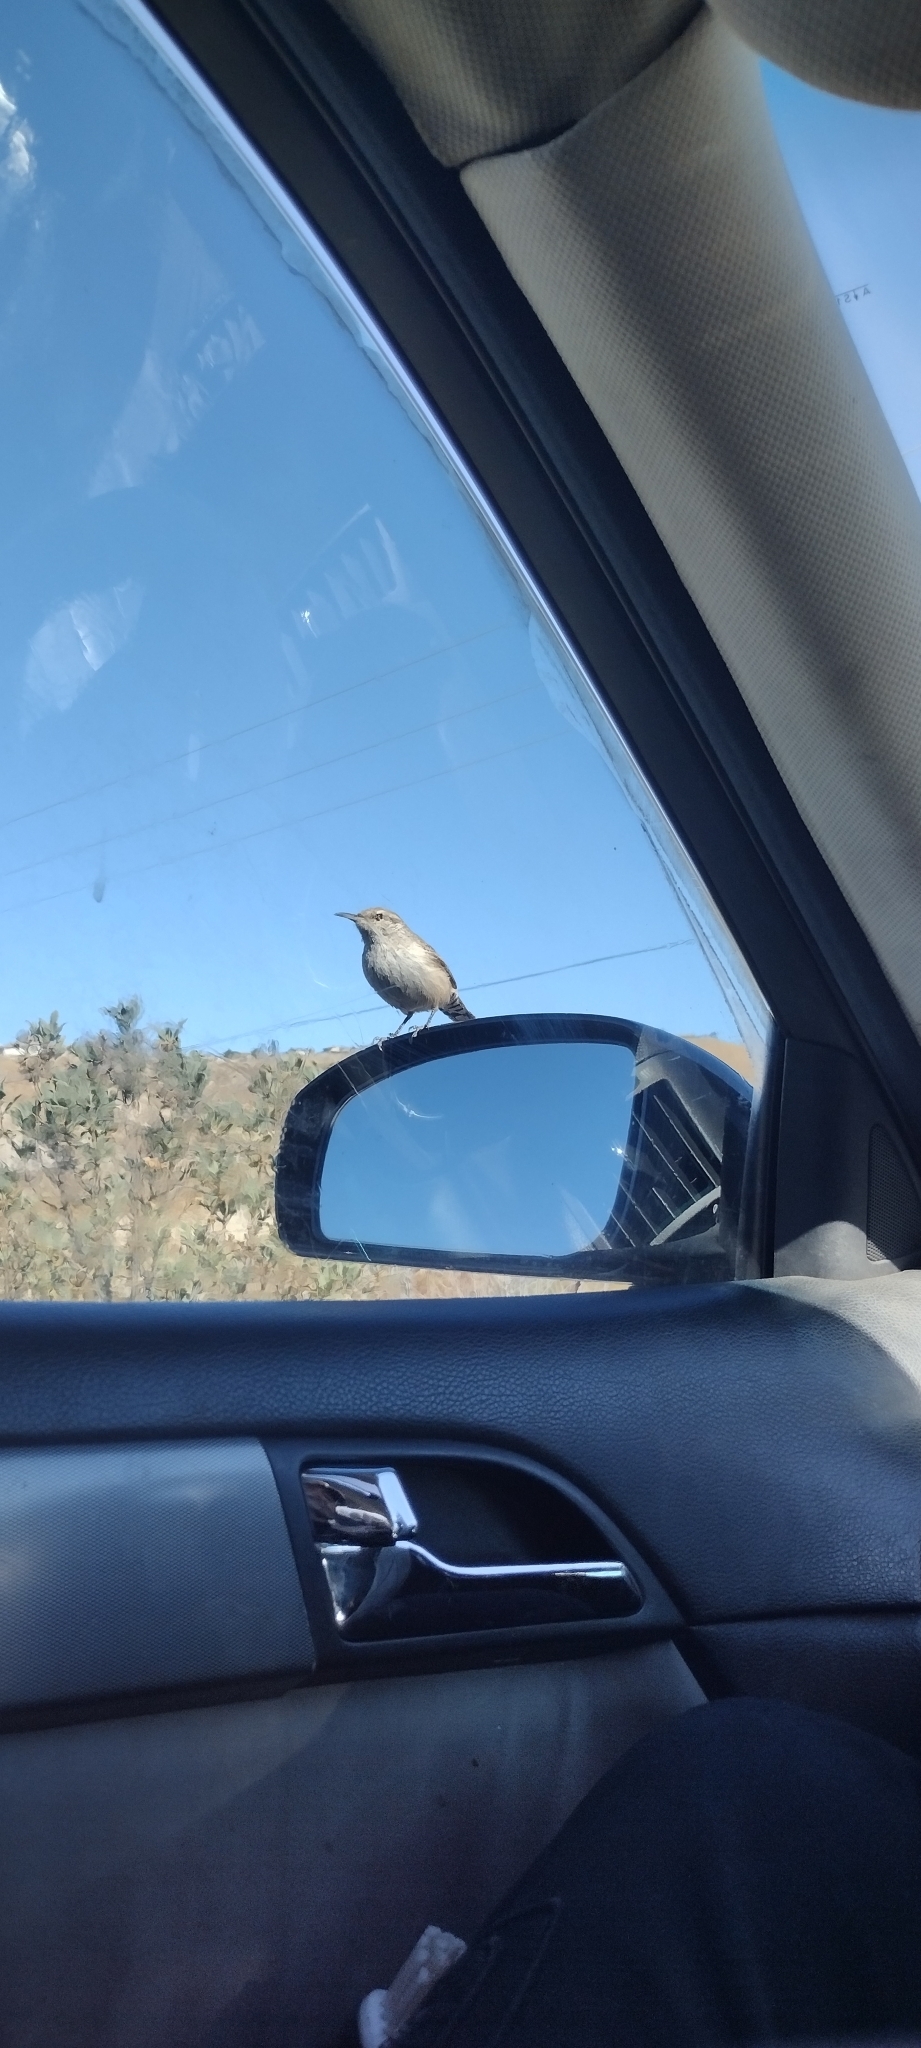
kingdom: Animalia
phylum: Chordata
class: Aves
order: Passeriformes
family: Troglodytidae
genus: Salpinctes
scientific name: Salpinctes obsoletus
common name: Rock wren
